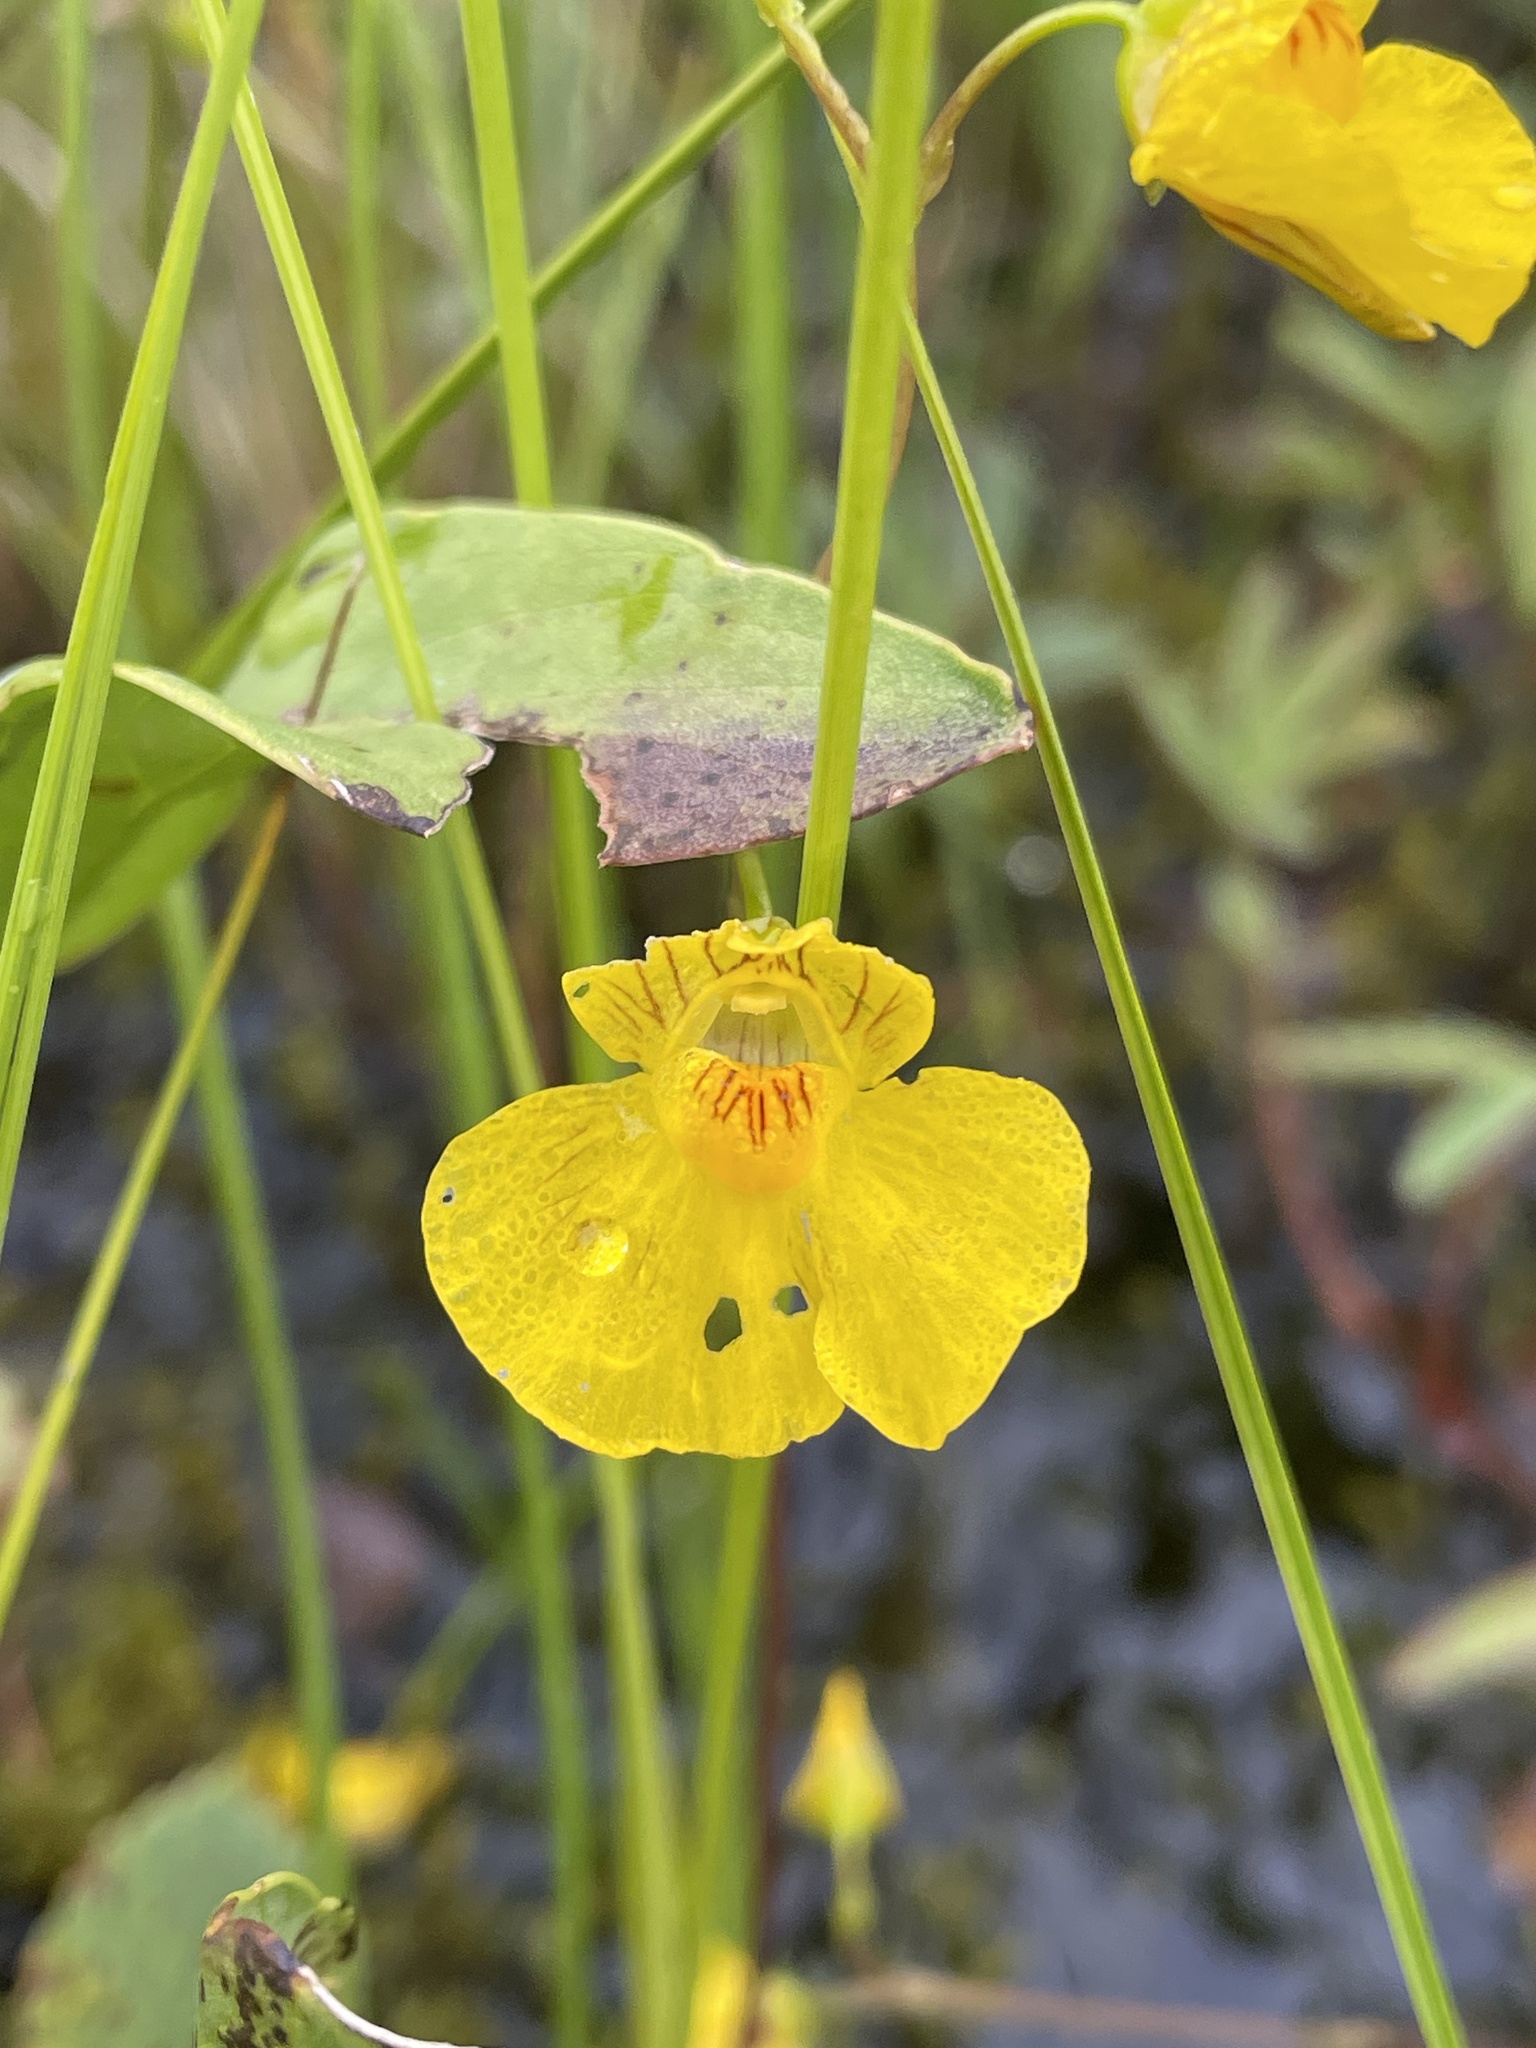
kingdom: Plantae
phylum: Tracheophyta
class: Magnoliopsida
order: Lamiales
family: Lentibulariaceae
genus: Utricularia
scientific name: Utricularia intermedia
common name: Intermediate bladderwort
